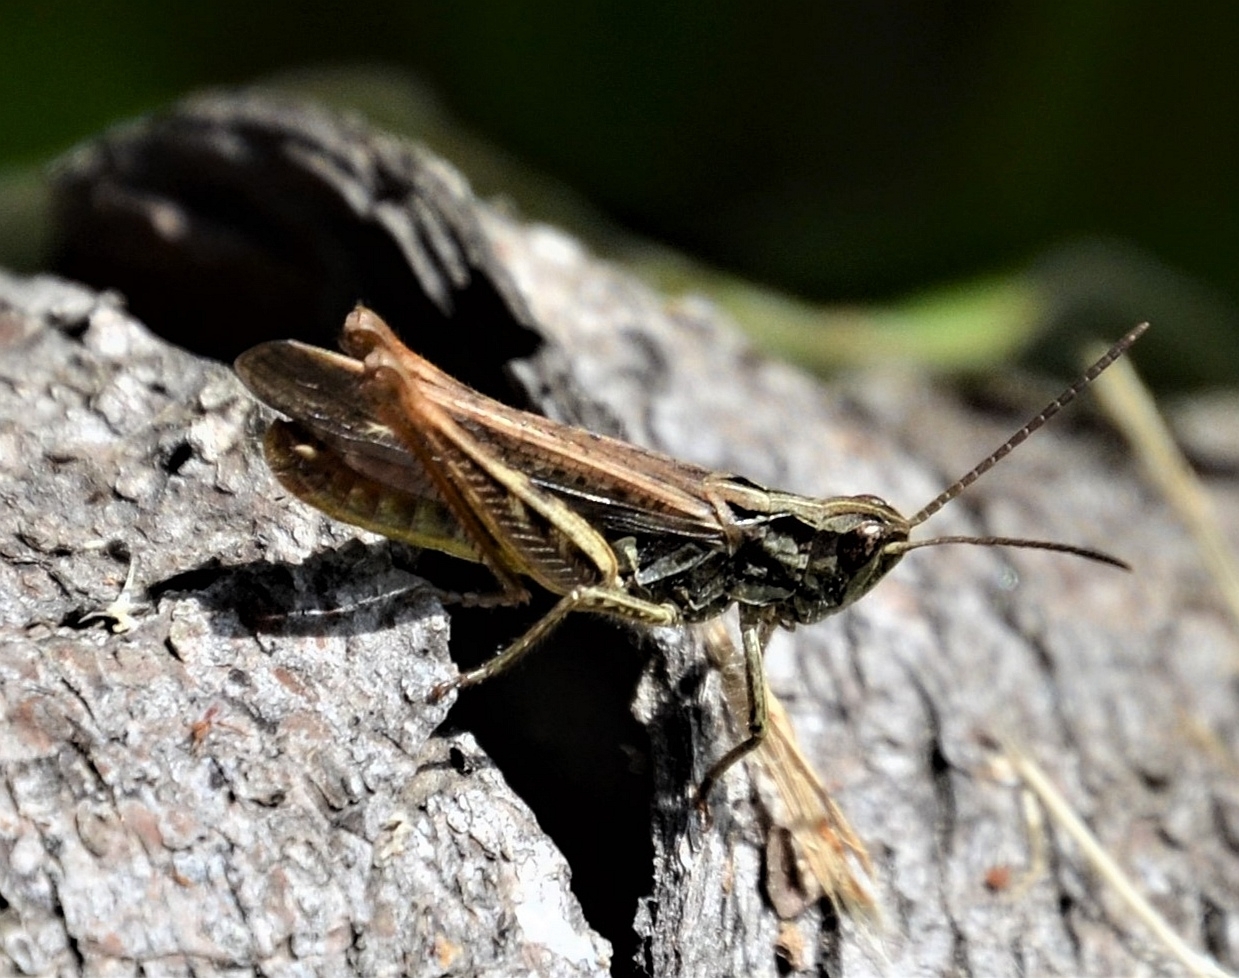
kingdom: Animalia
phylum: Arthropoda
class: Insecta
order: Orthoptera
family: Acrididae
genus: Chorthippus
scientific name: Chorthippus biguttulus
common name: Bow-winged grasshopper
